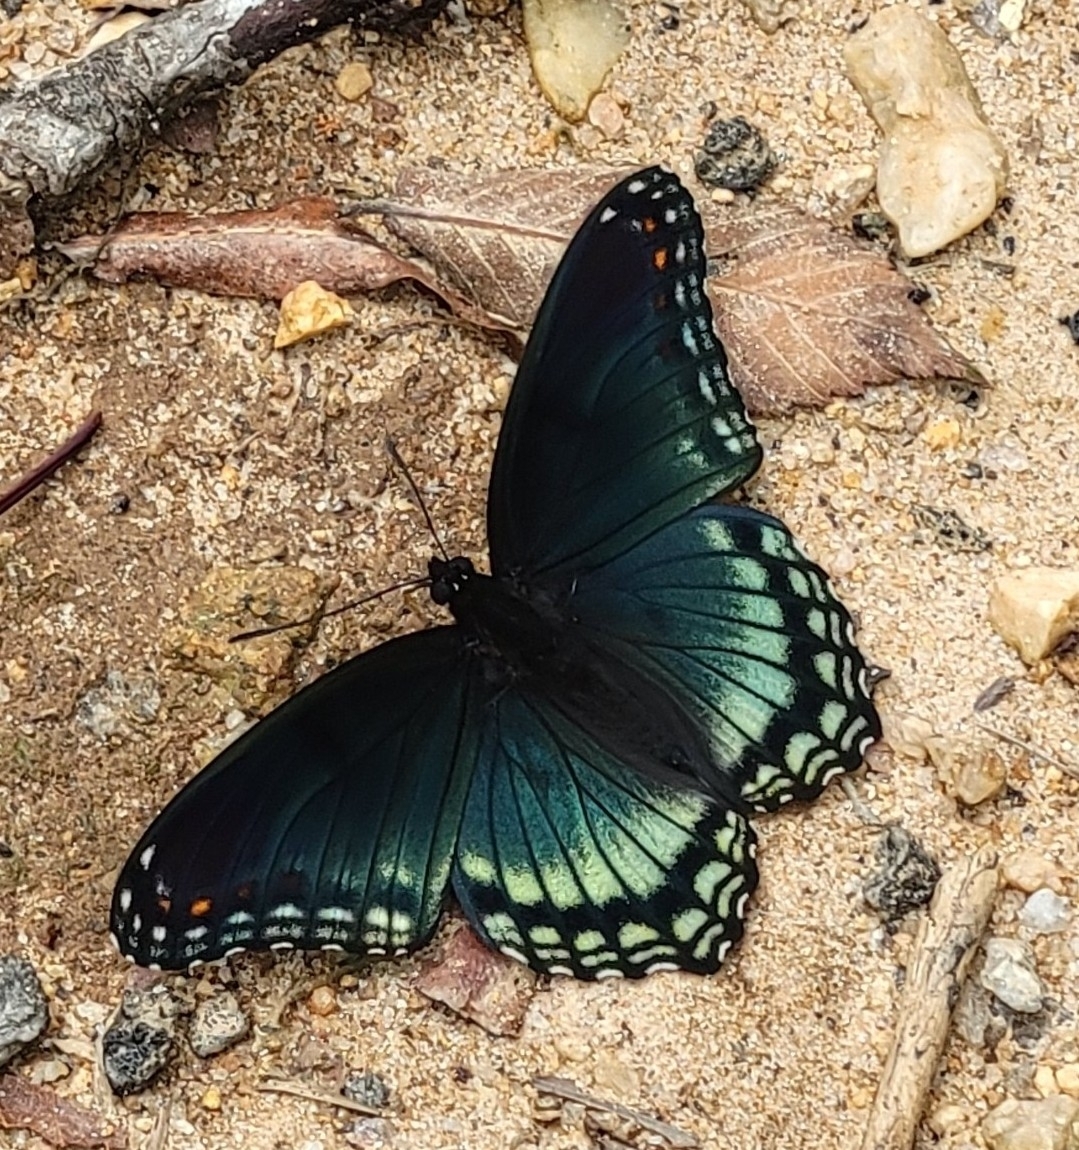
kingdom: Animalia
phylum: Arthropoda
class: Insecta
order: Lepidoptera
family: Nymphalidae
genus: Limenitis
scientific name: Limenitis astyanax
